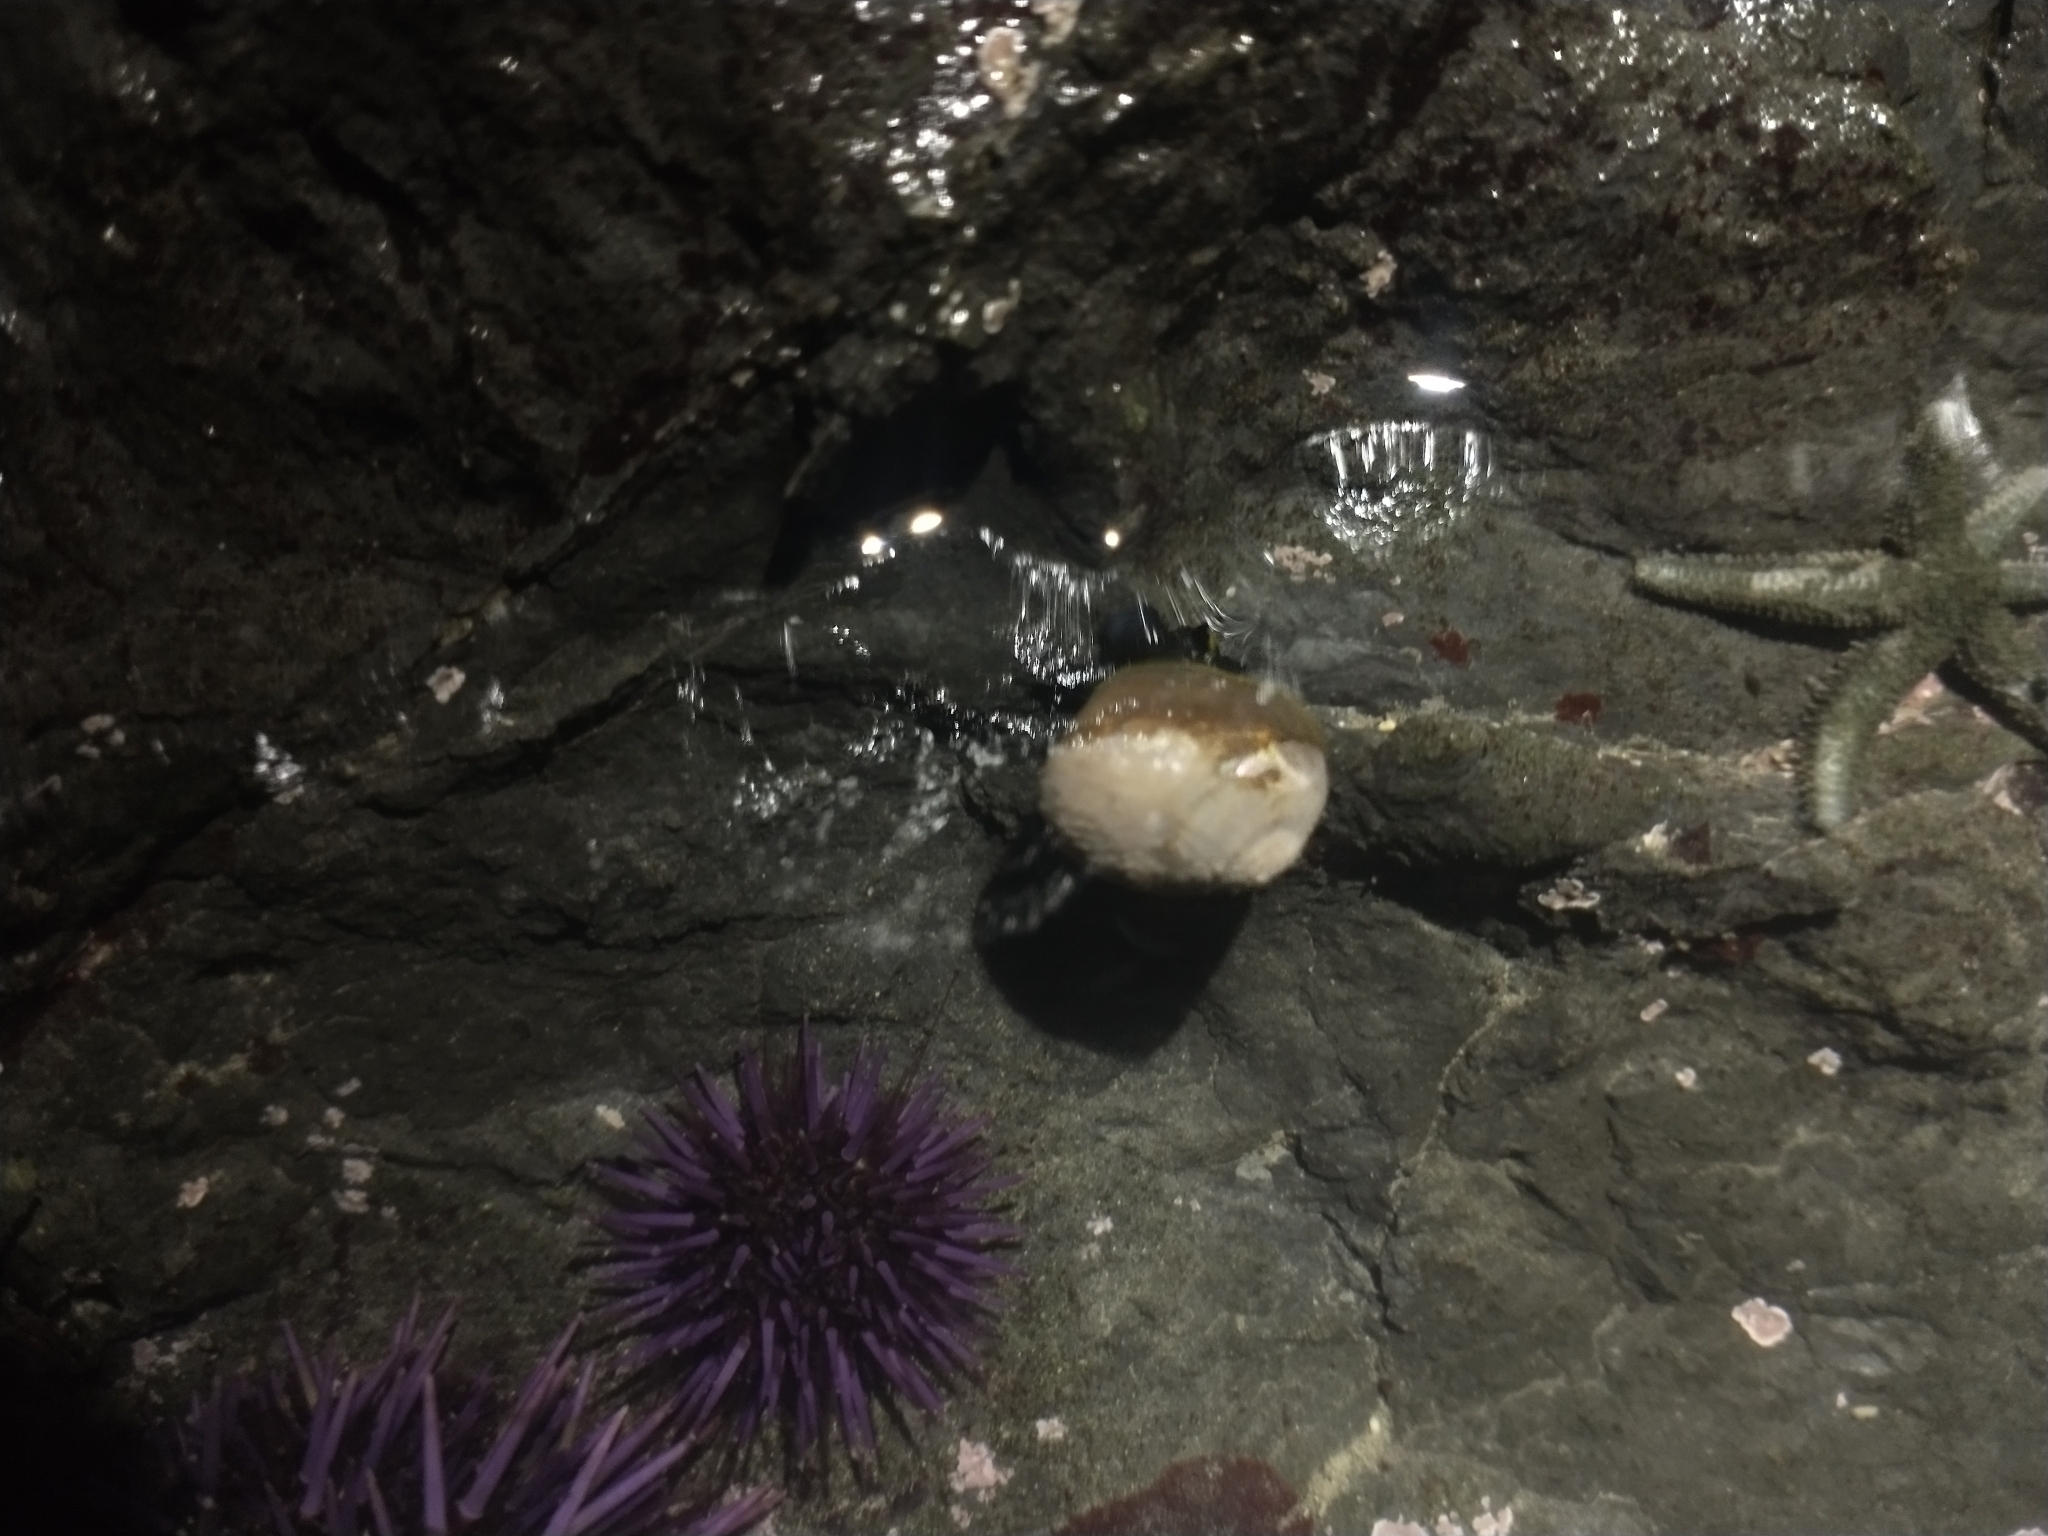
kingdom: Animalia
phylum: Echinodermata
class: Echinoidea
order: Camarodonta
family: Strongylocentrotidae
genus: Strongylocentrotus
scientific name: Strongylocentrotus purpuratus
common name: Purple sea urchin
